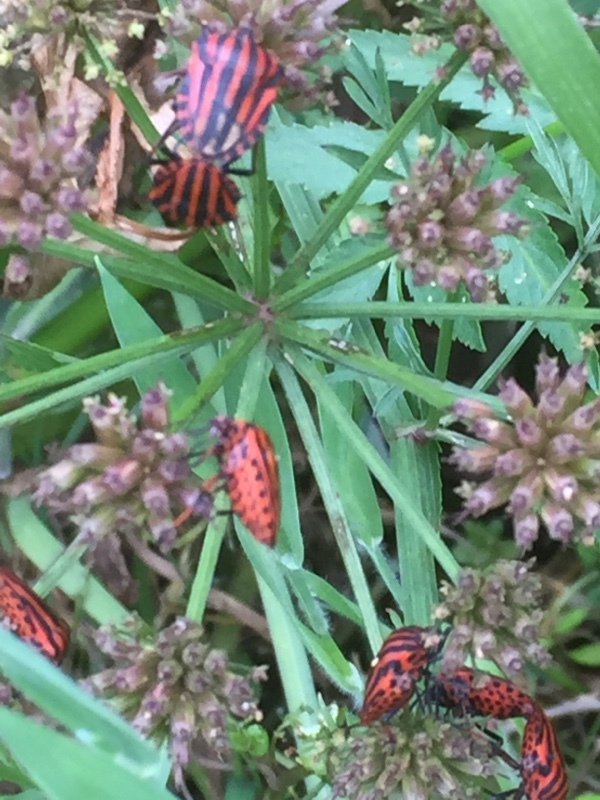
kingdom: Animalia
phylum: Arthropoda
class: Insecta
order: Hemiptera
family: Pentatomidae
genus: Graphosoma
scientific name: Graphosoma italicum
